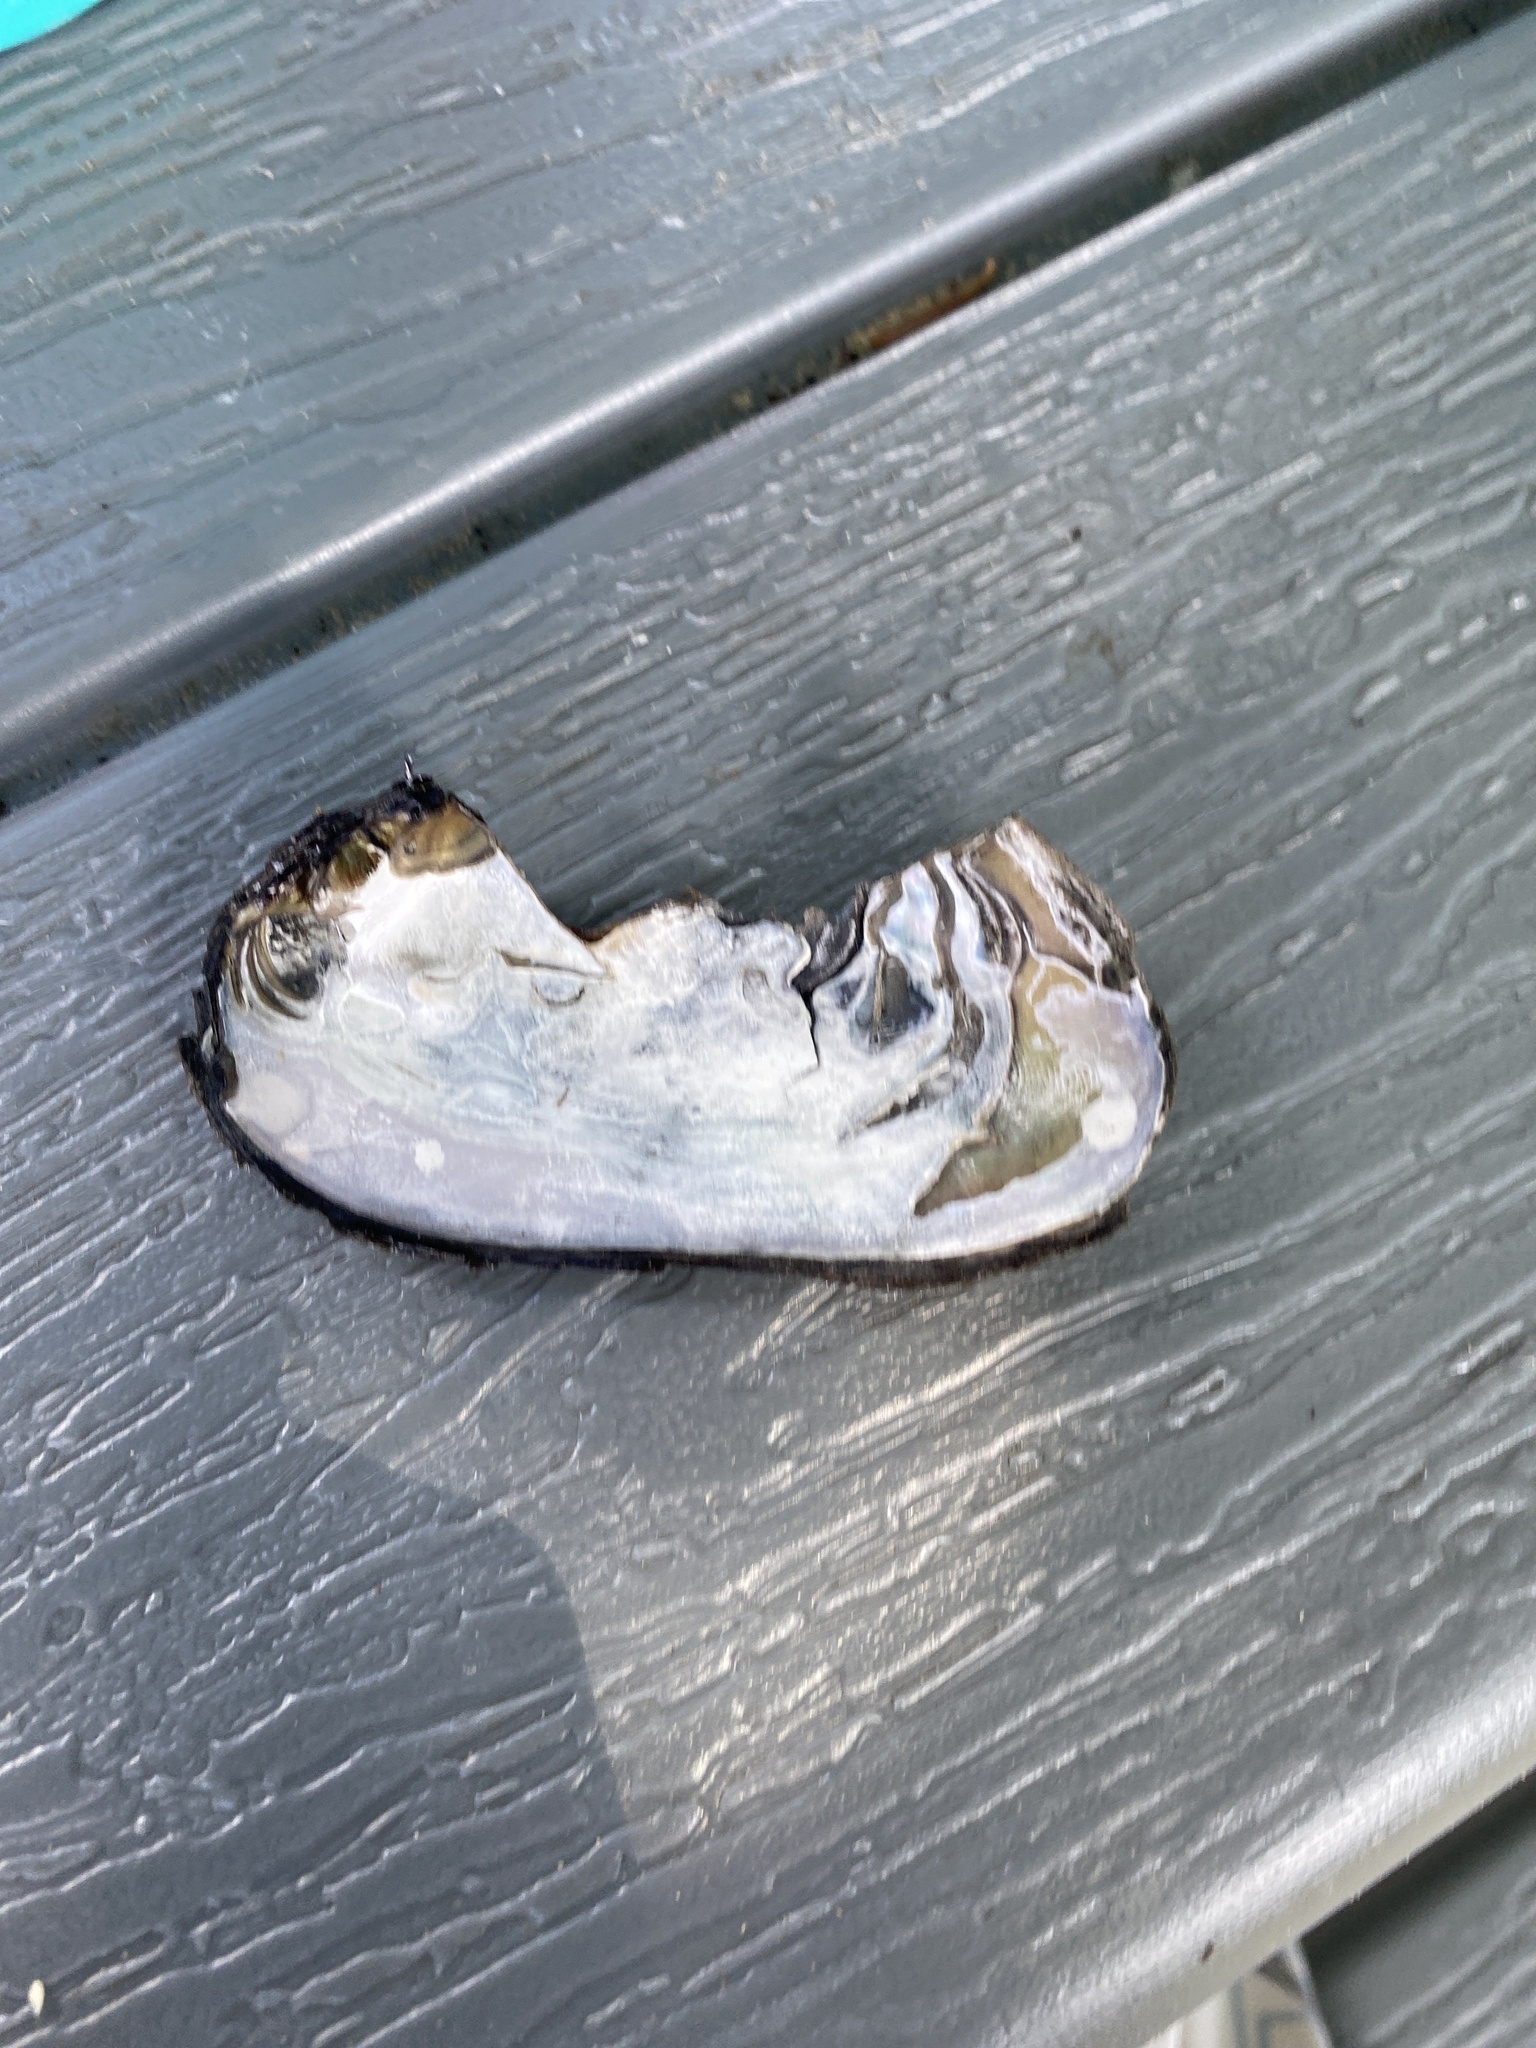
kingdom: Animalia
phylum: Mollusca
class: Bivalvia
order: Unionida
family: Unionidae
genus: Elliptio
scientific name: Elliptio complanata
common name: Eastern elliptio
